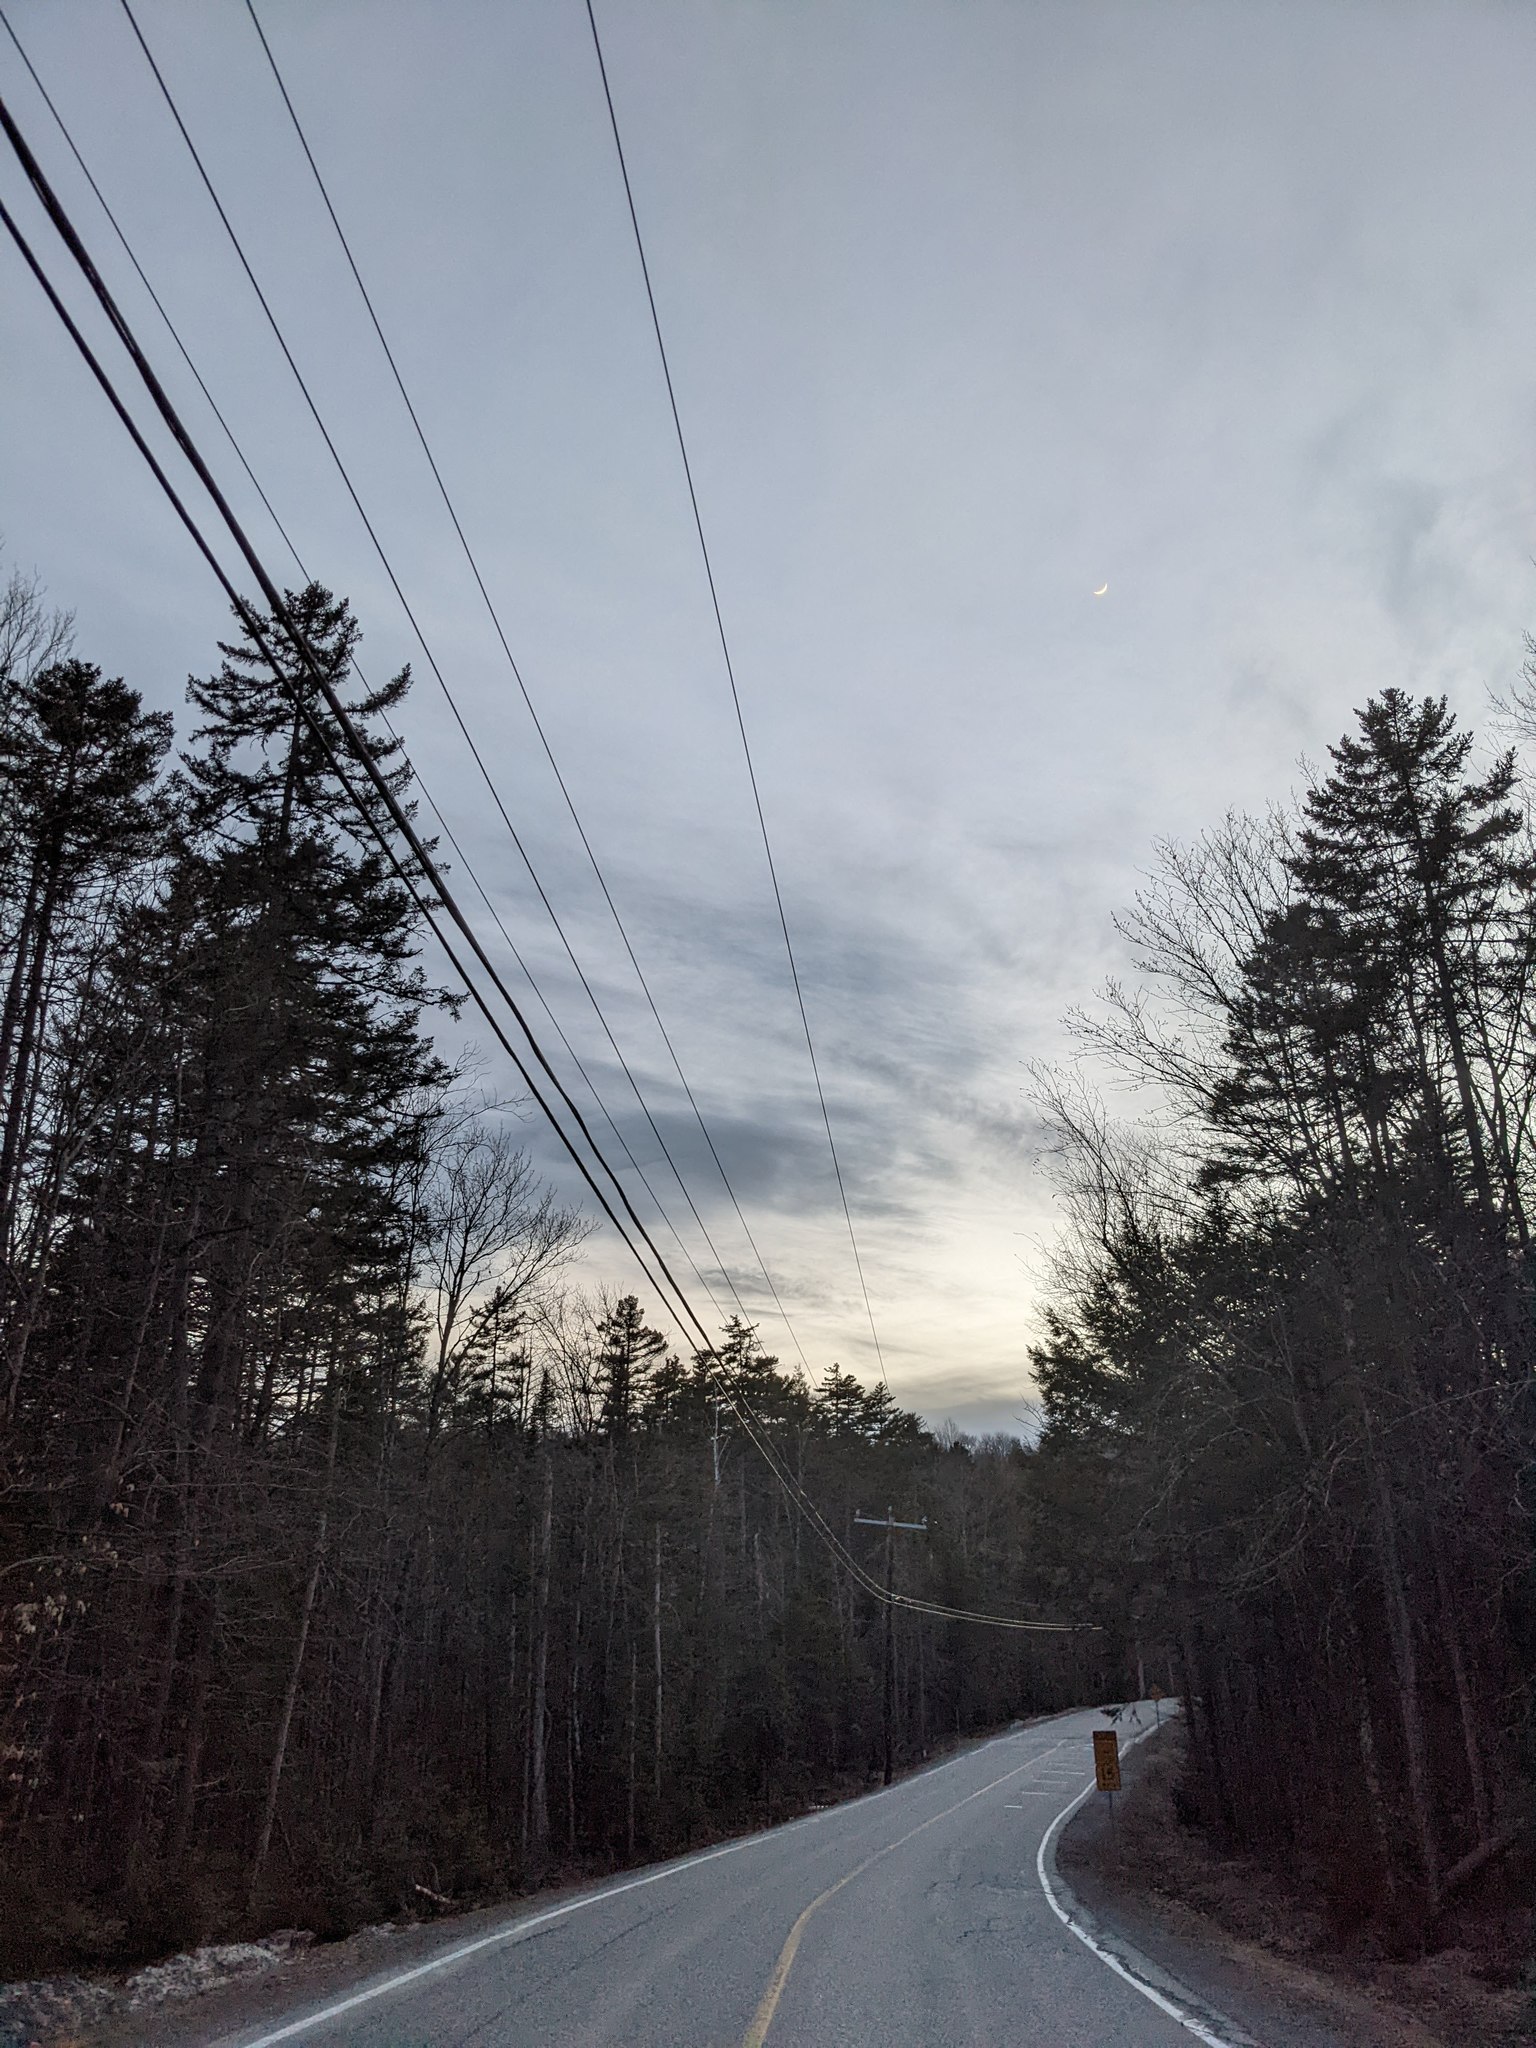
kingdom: Plantae
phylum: Tracheophyta
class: Pinopsida
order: Pinales
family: Pinaceae
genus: Pinus
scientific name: Pinus strobus
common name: Weymouth pine
